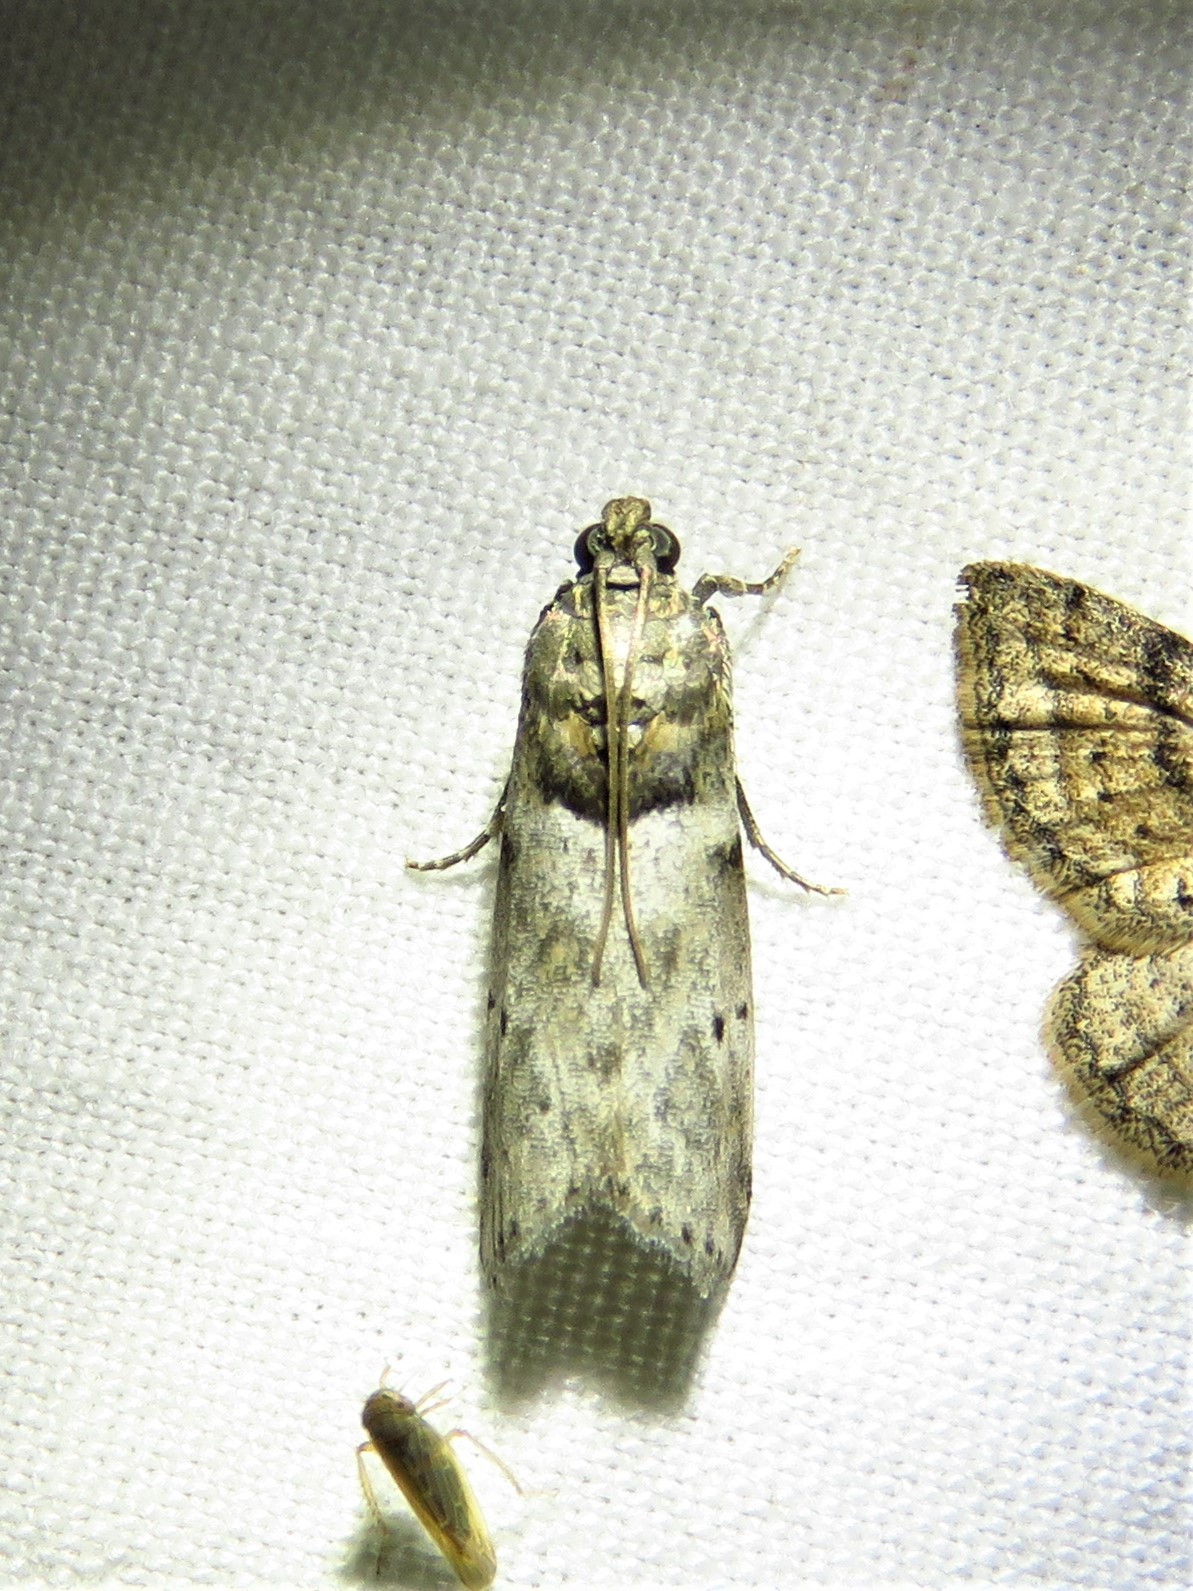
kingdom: Animalia
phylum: Arthropoda
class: Insecta
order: Lepidoptera
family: Pyralidae
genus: Salebriaria
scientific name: Salebriaria annulosella
